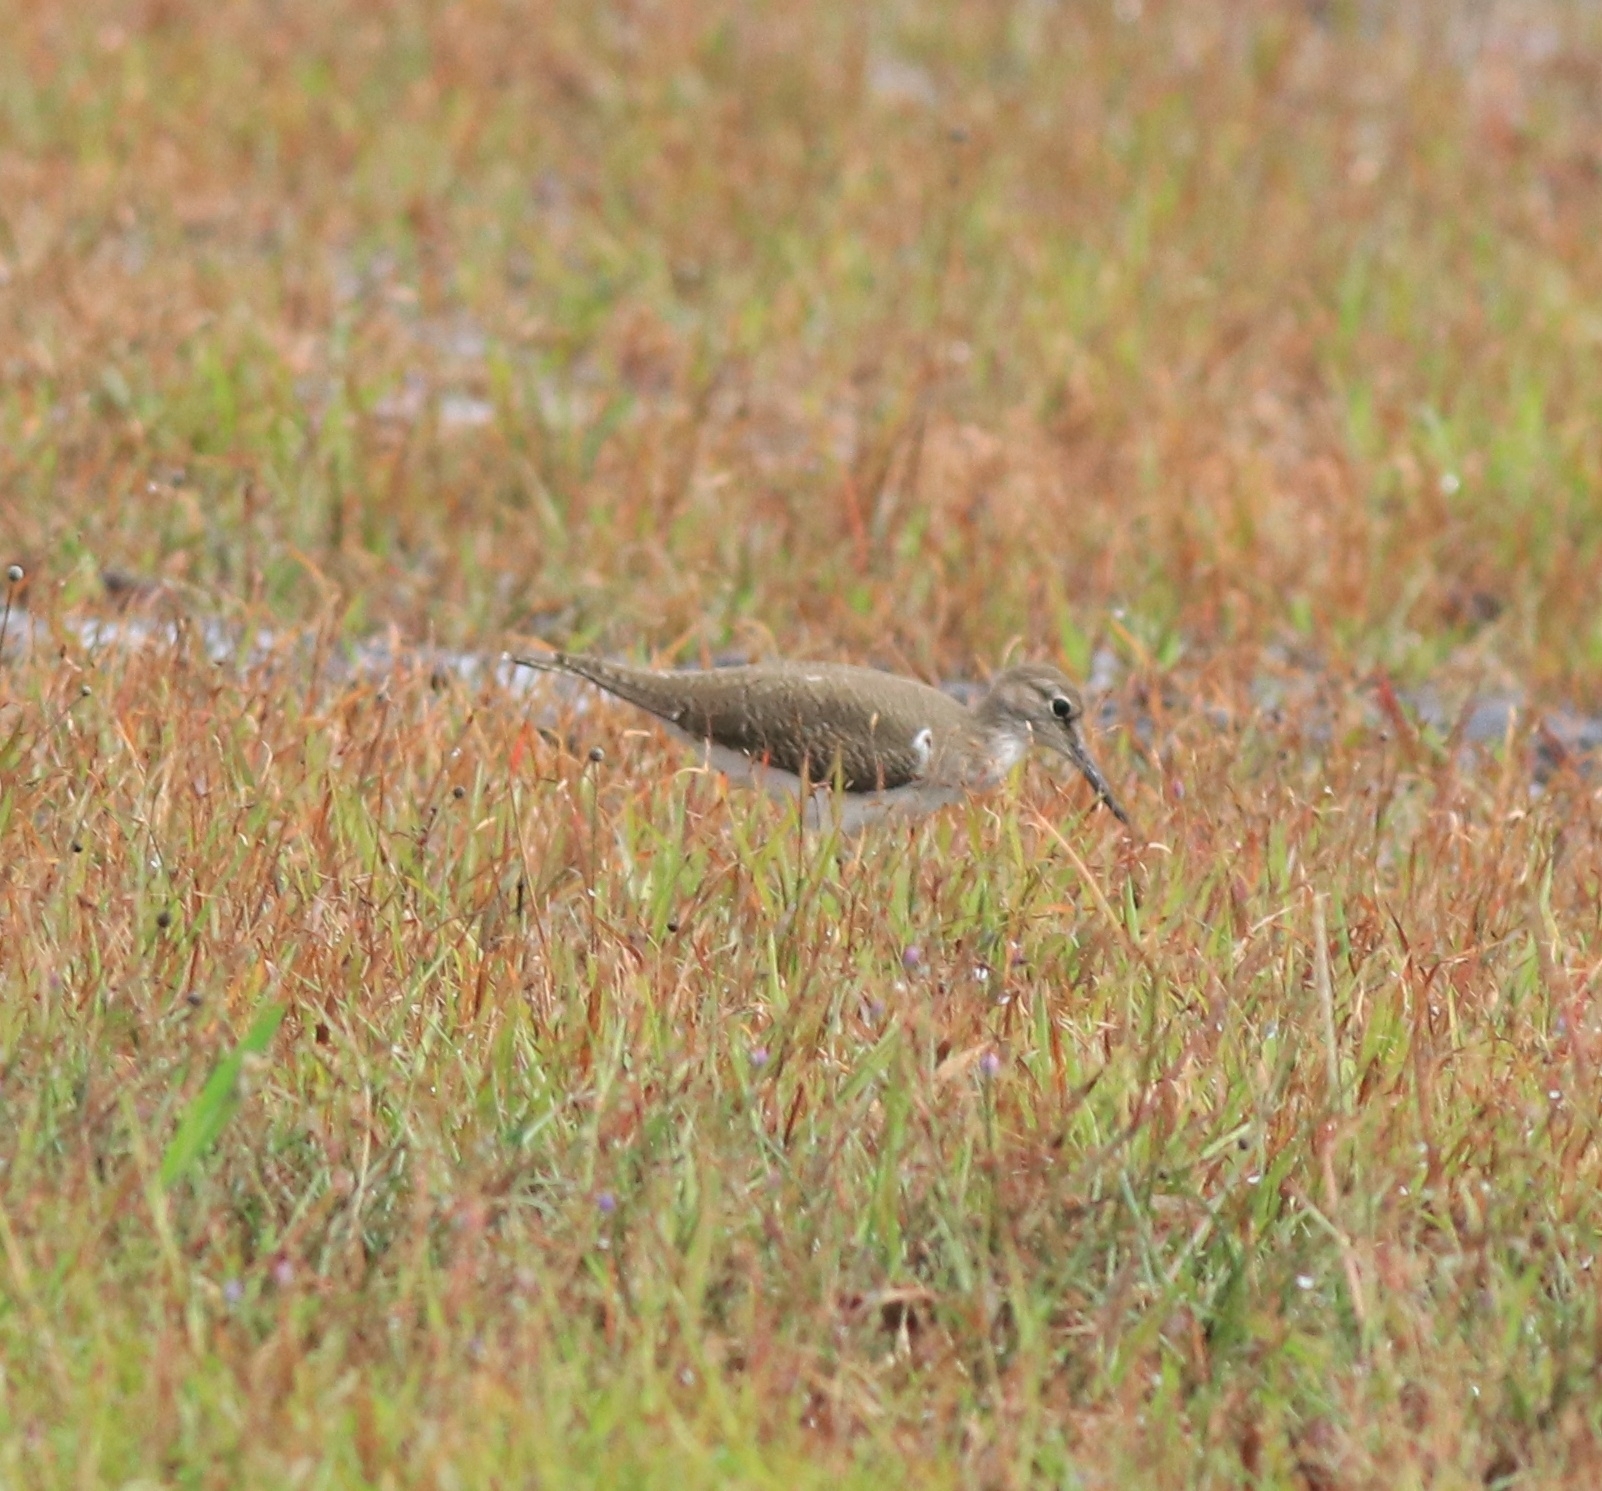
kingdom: Animalia
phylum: Chordata
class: Aves
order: Charadriiformes
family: Scolopacidae
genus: Actitis
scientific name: Actitis hypoleucos
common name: Common sandpiper
